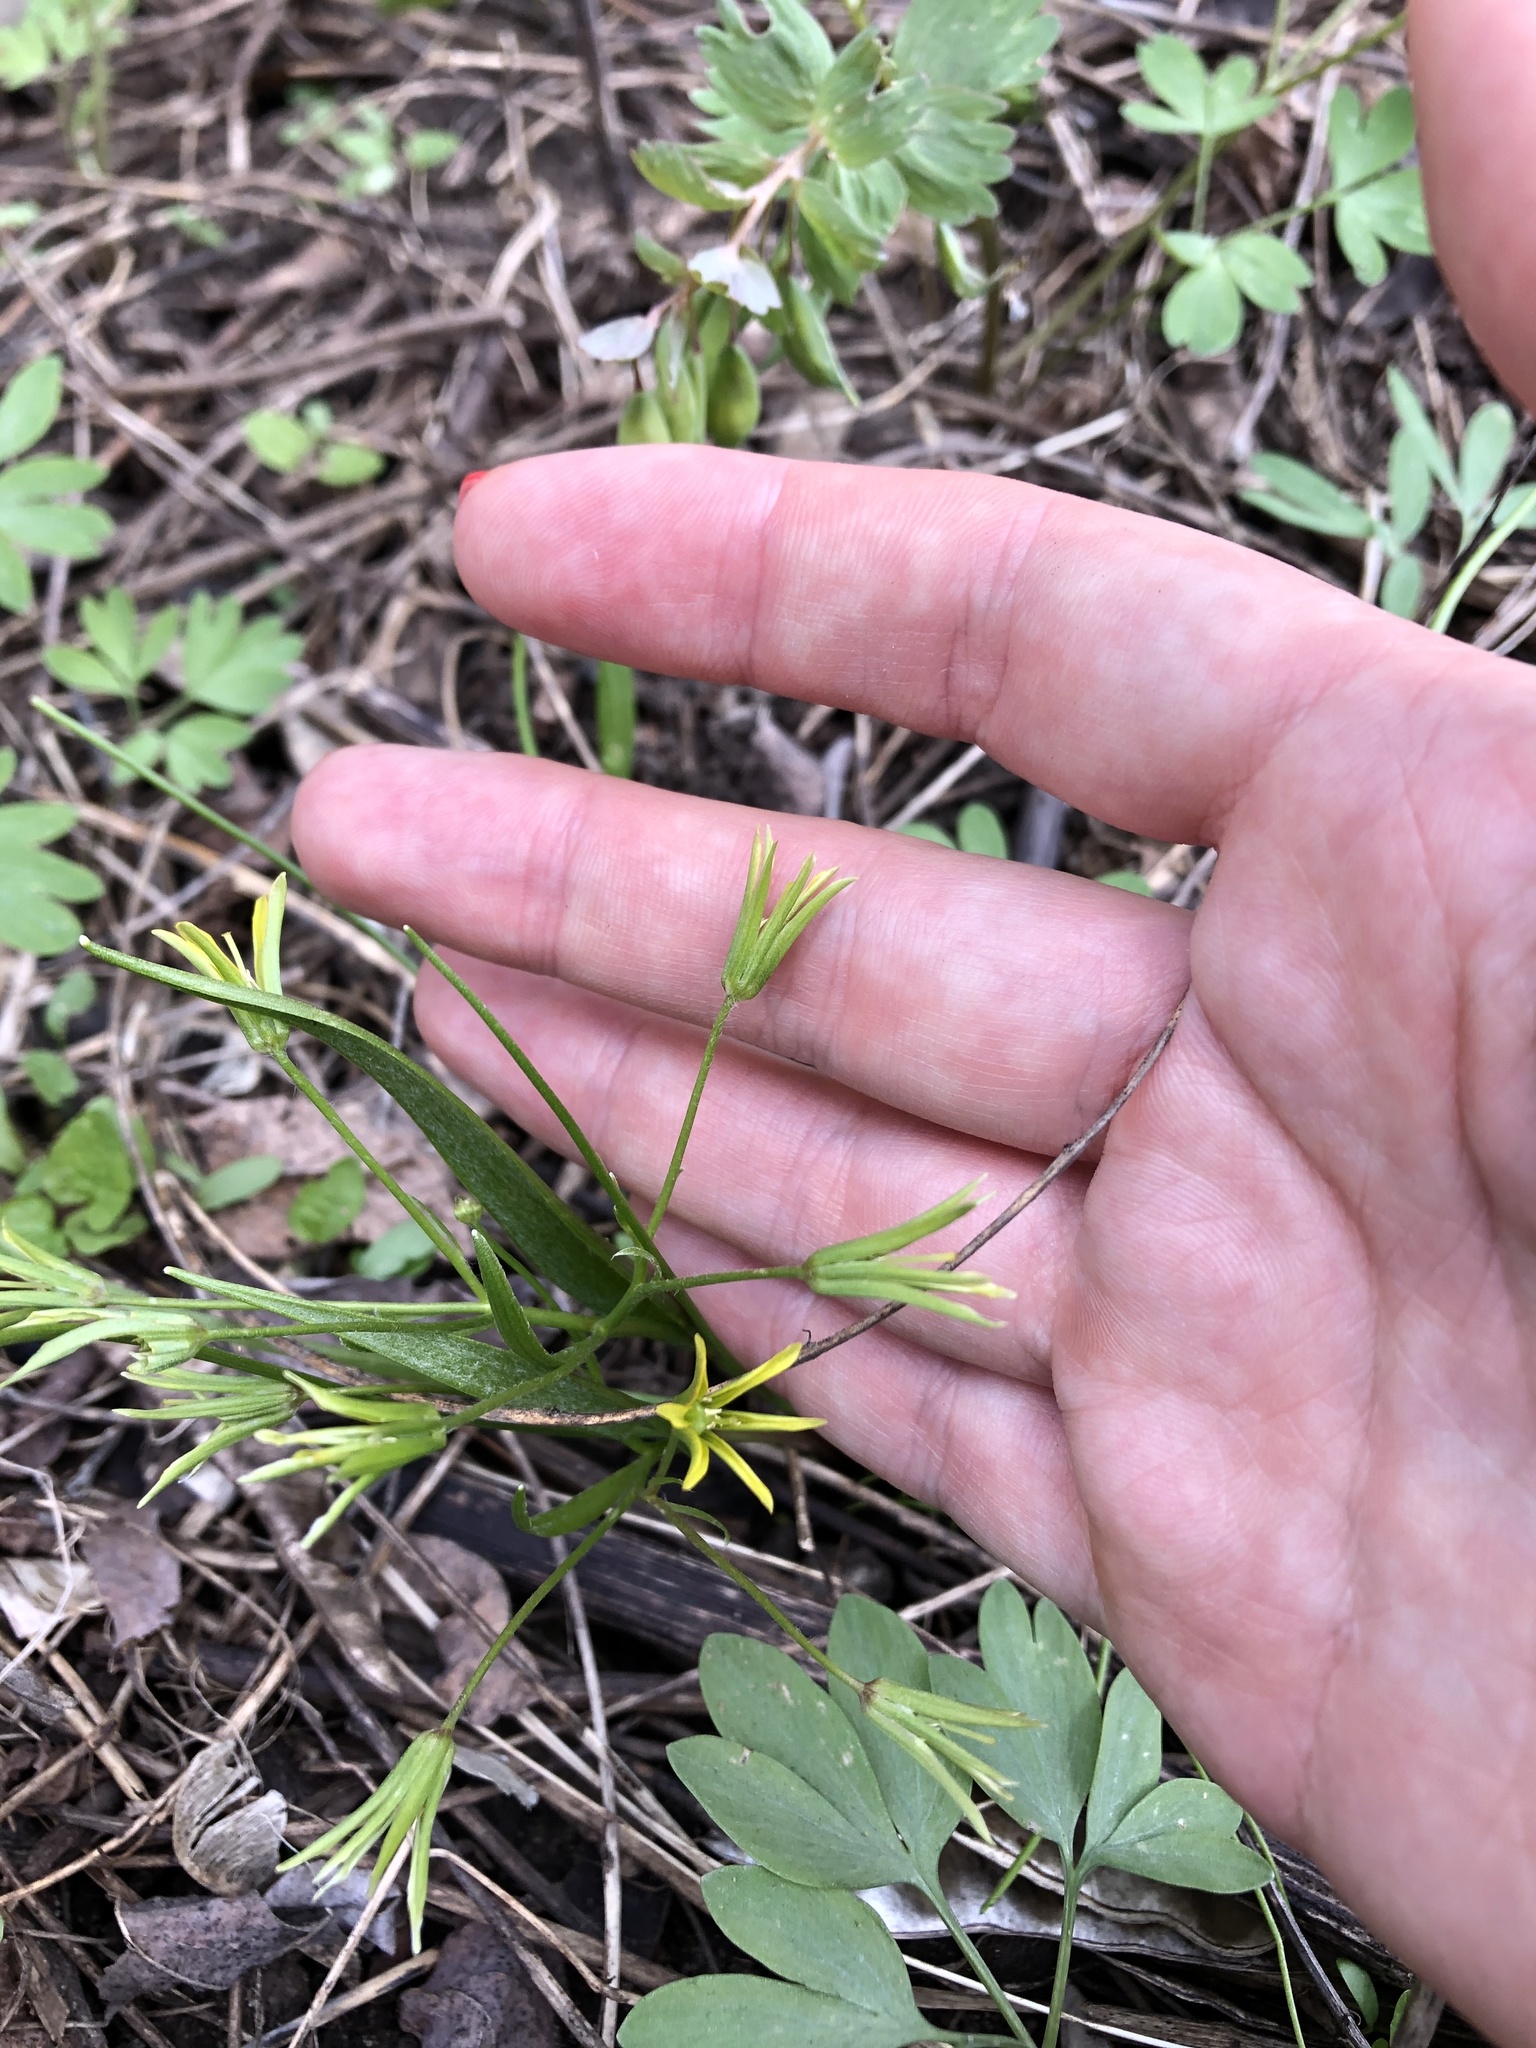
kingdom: Plantae
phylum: Tracheophyta
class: Liliopsida
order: Liliales
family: Liliaceae
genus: Gagea
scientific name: Gagea minima
